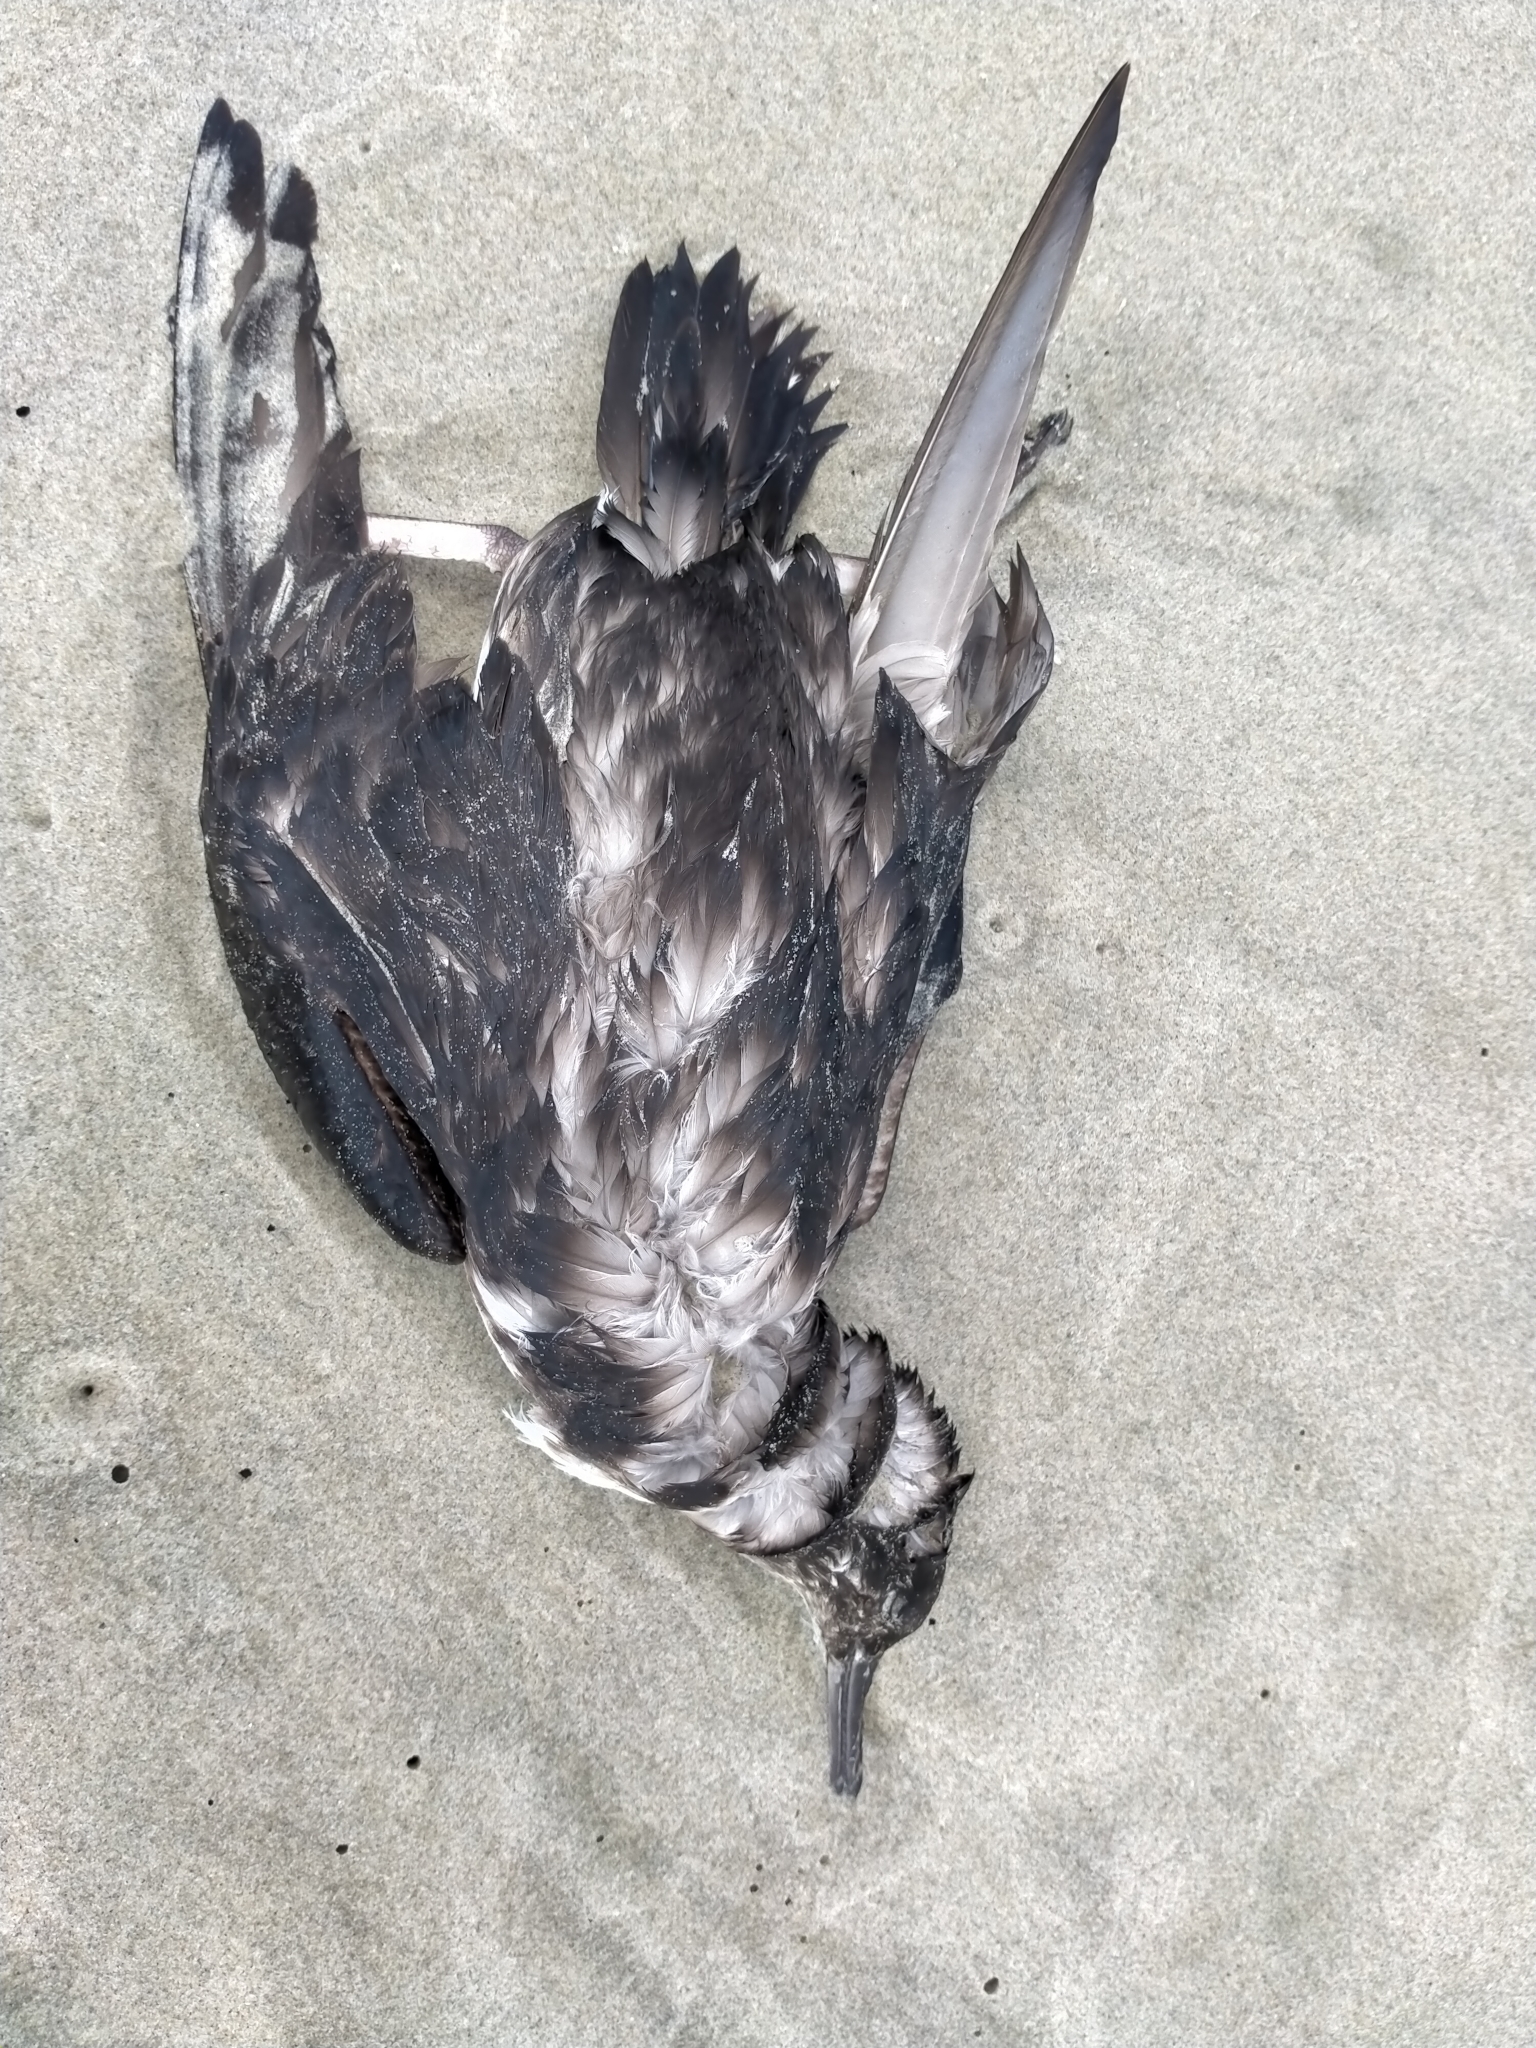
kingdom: Animalia
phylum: Chordata
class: Aves
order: Procellariiformes
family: Procellariidae
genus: Puffinus
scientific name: Puffinus gavia
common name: Fluttering shearwater
